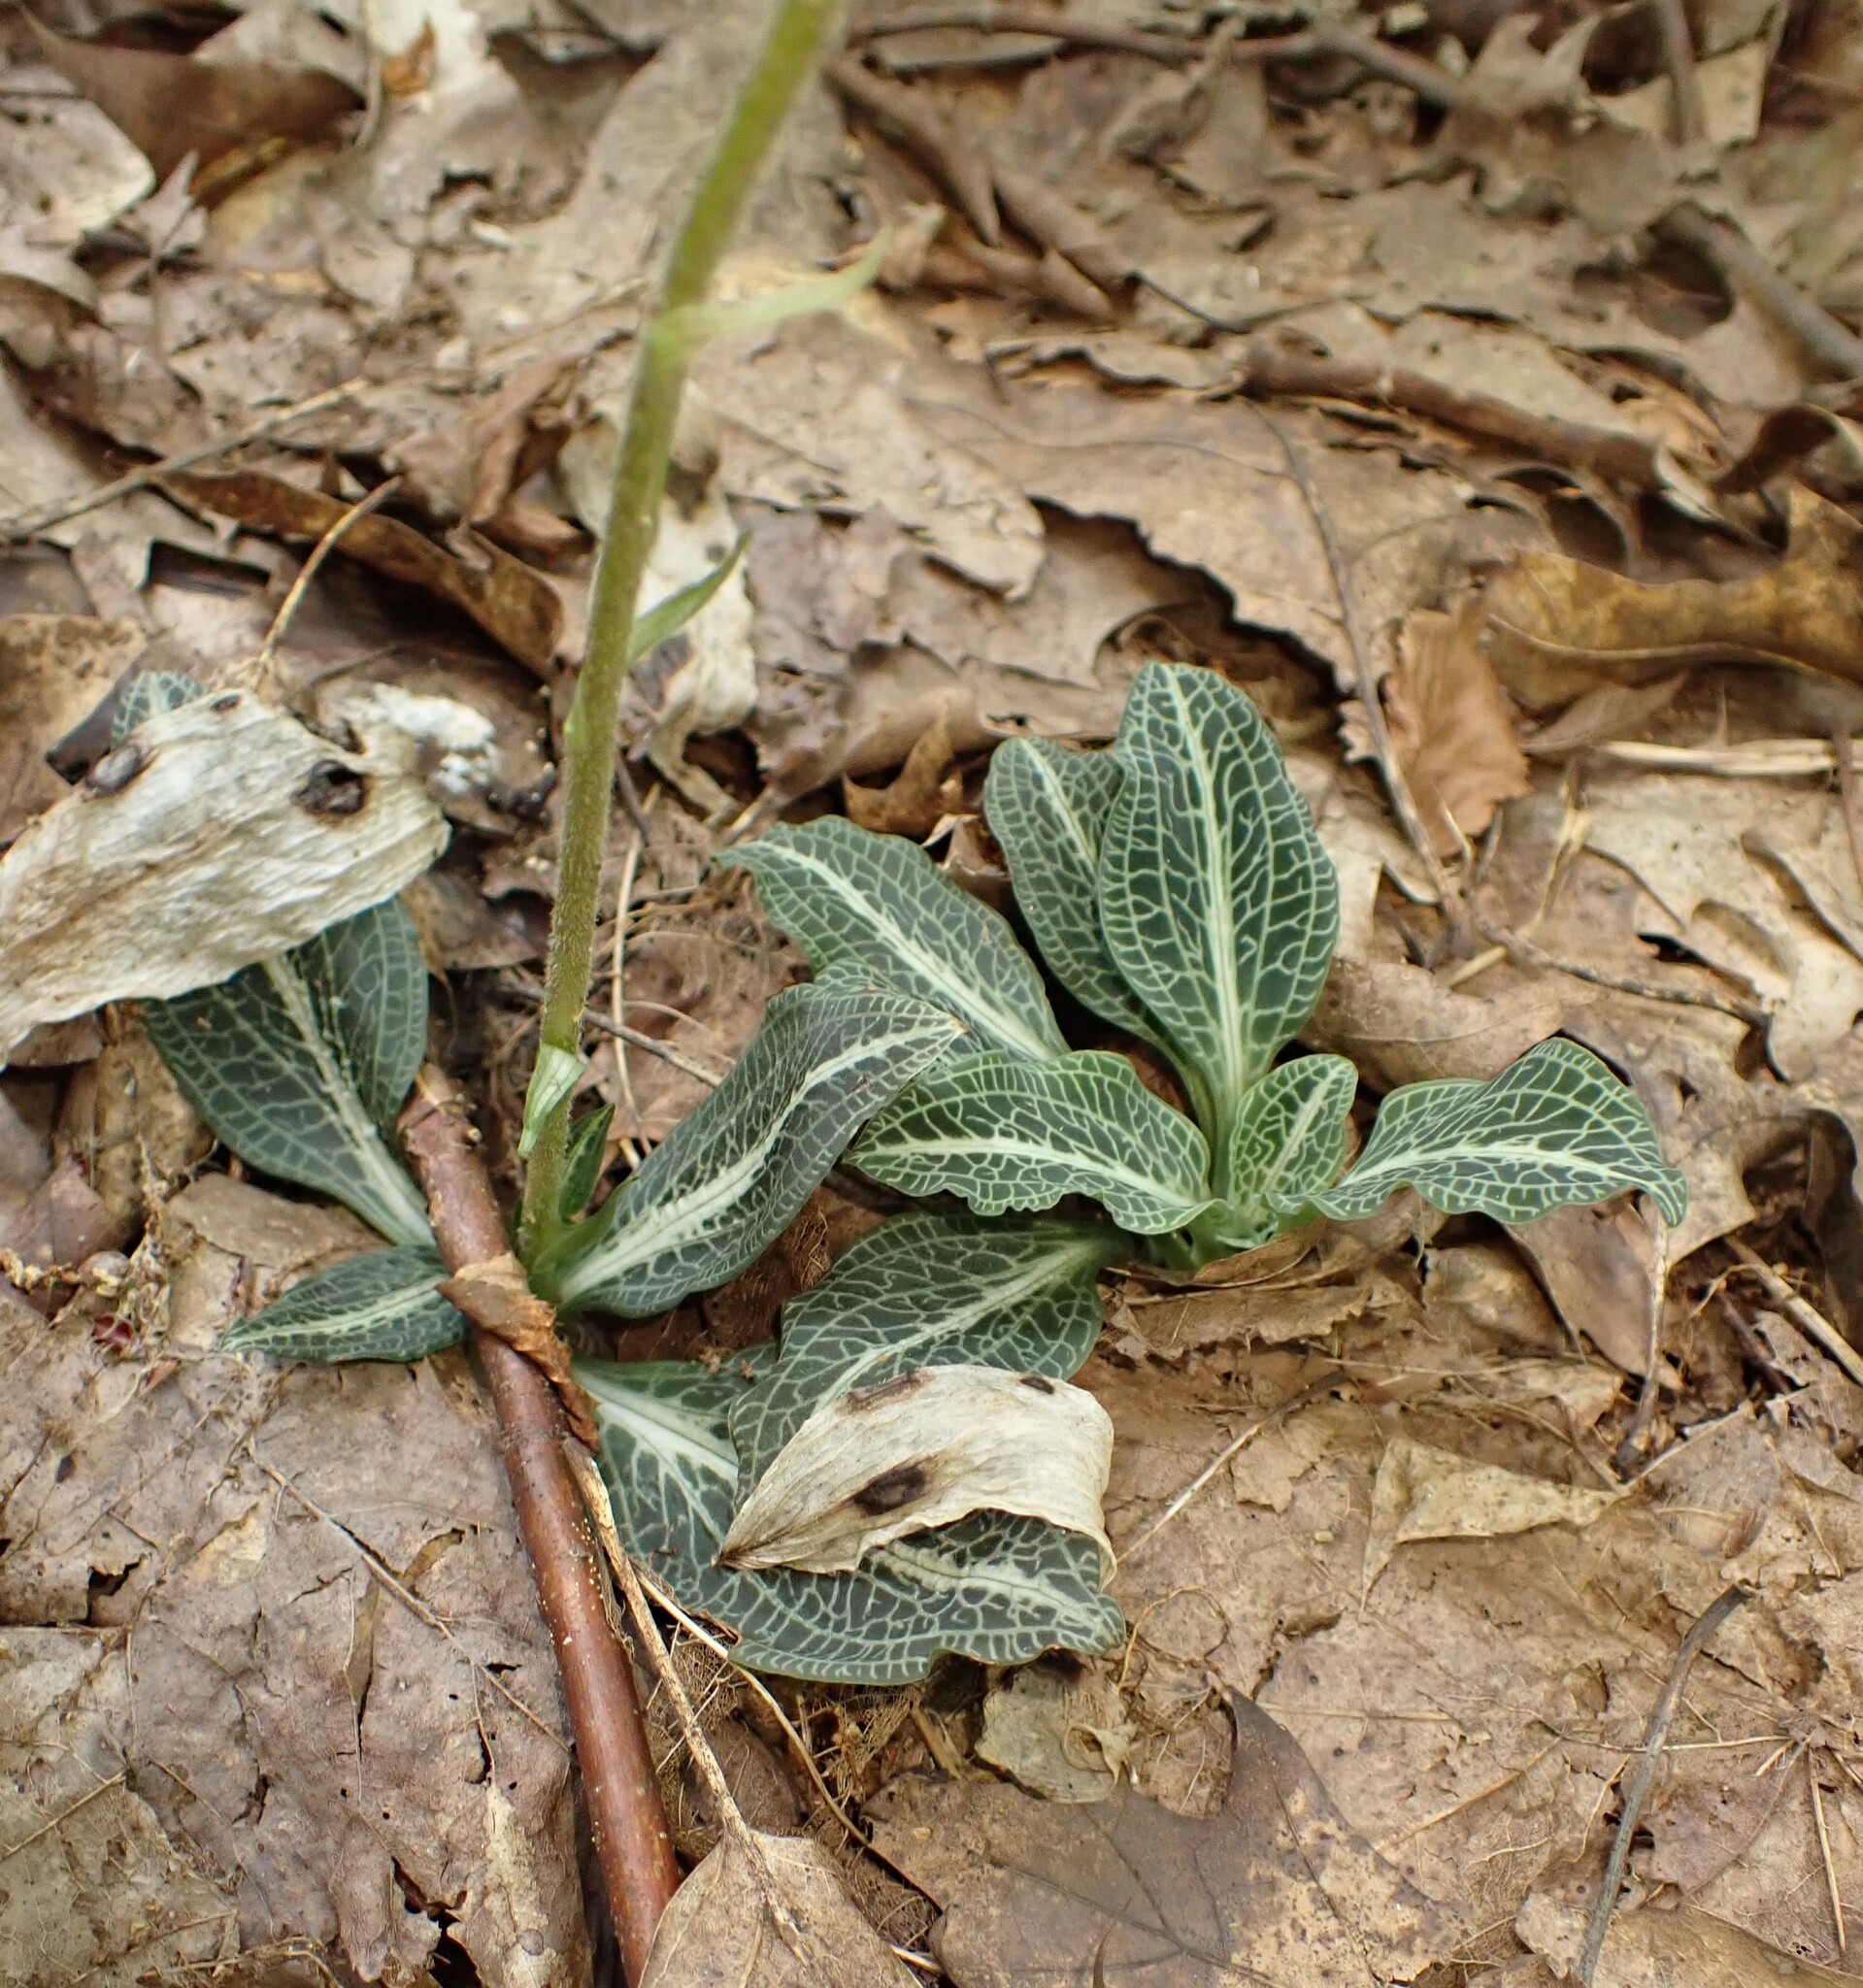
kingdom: Plantae
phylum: Tracheophyta
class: Liliopsida
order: Asparagales
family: Orchidaceae
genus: Goodyera
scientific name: Goodyera pubescens
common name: Downy rattlesnake-plantain
